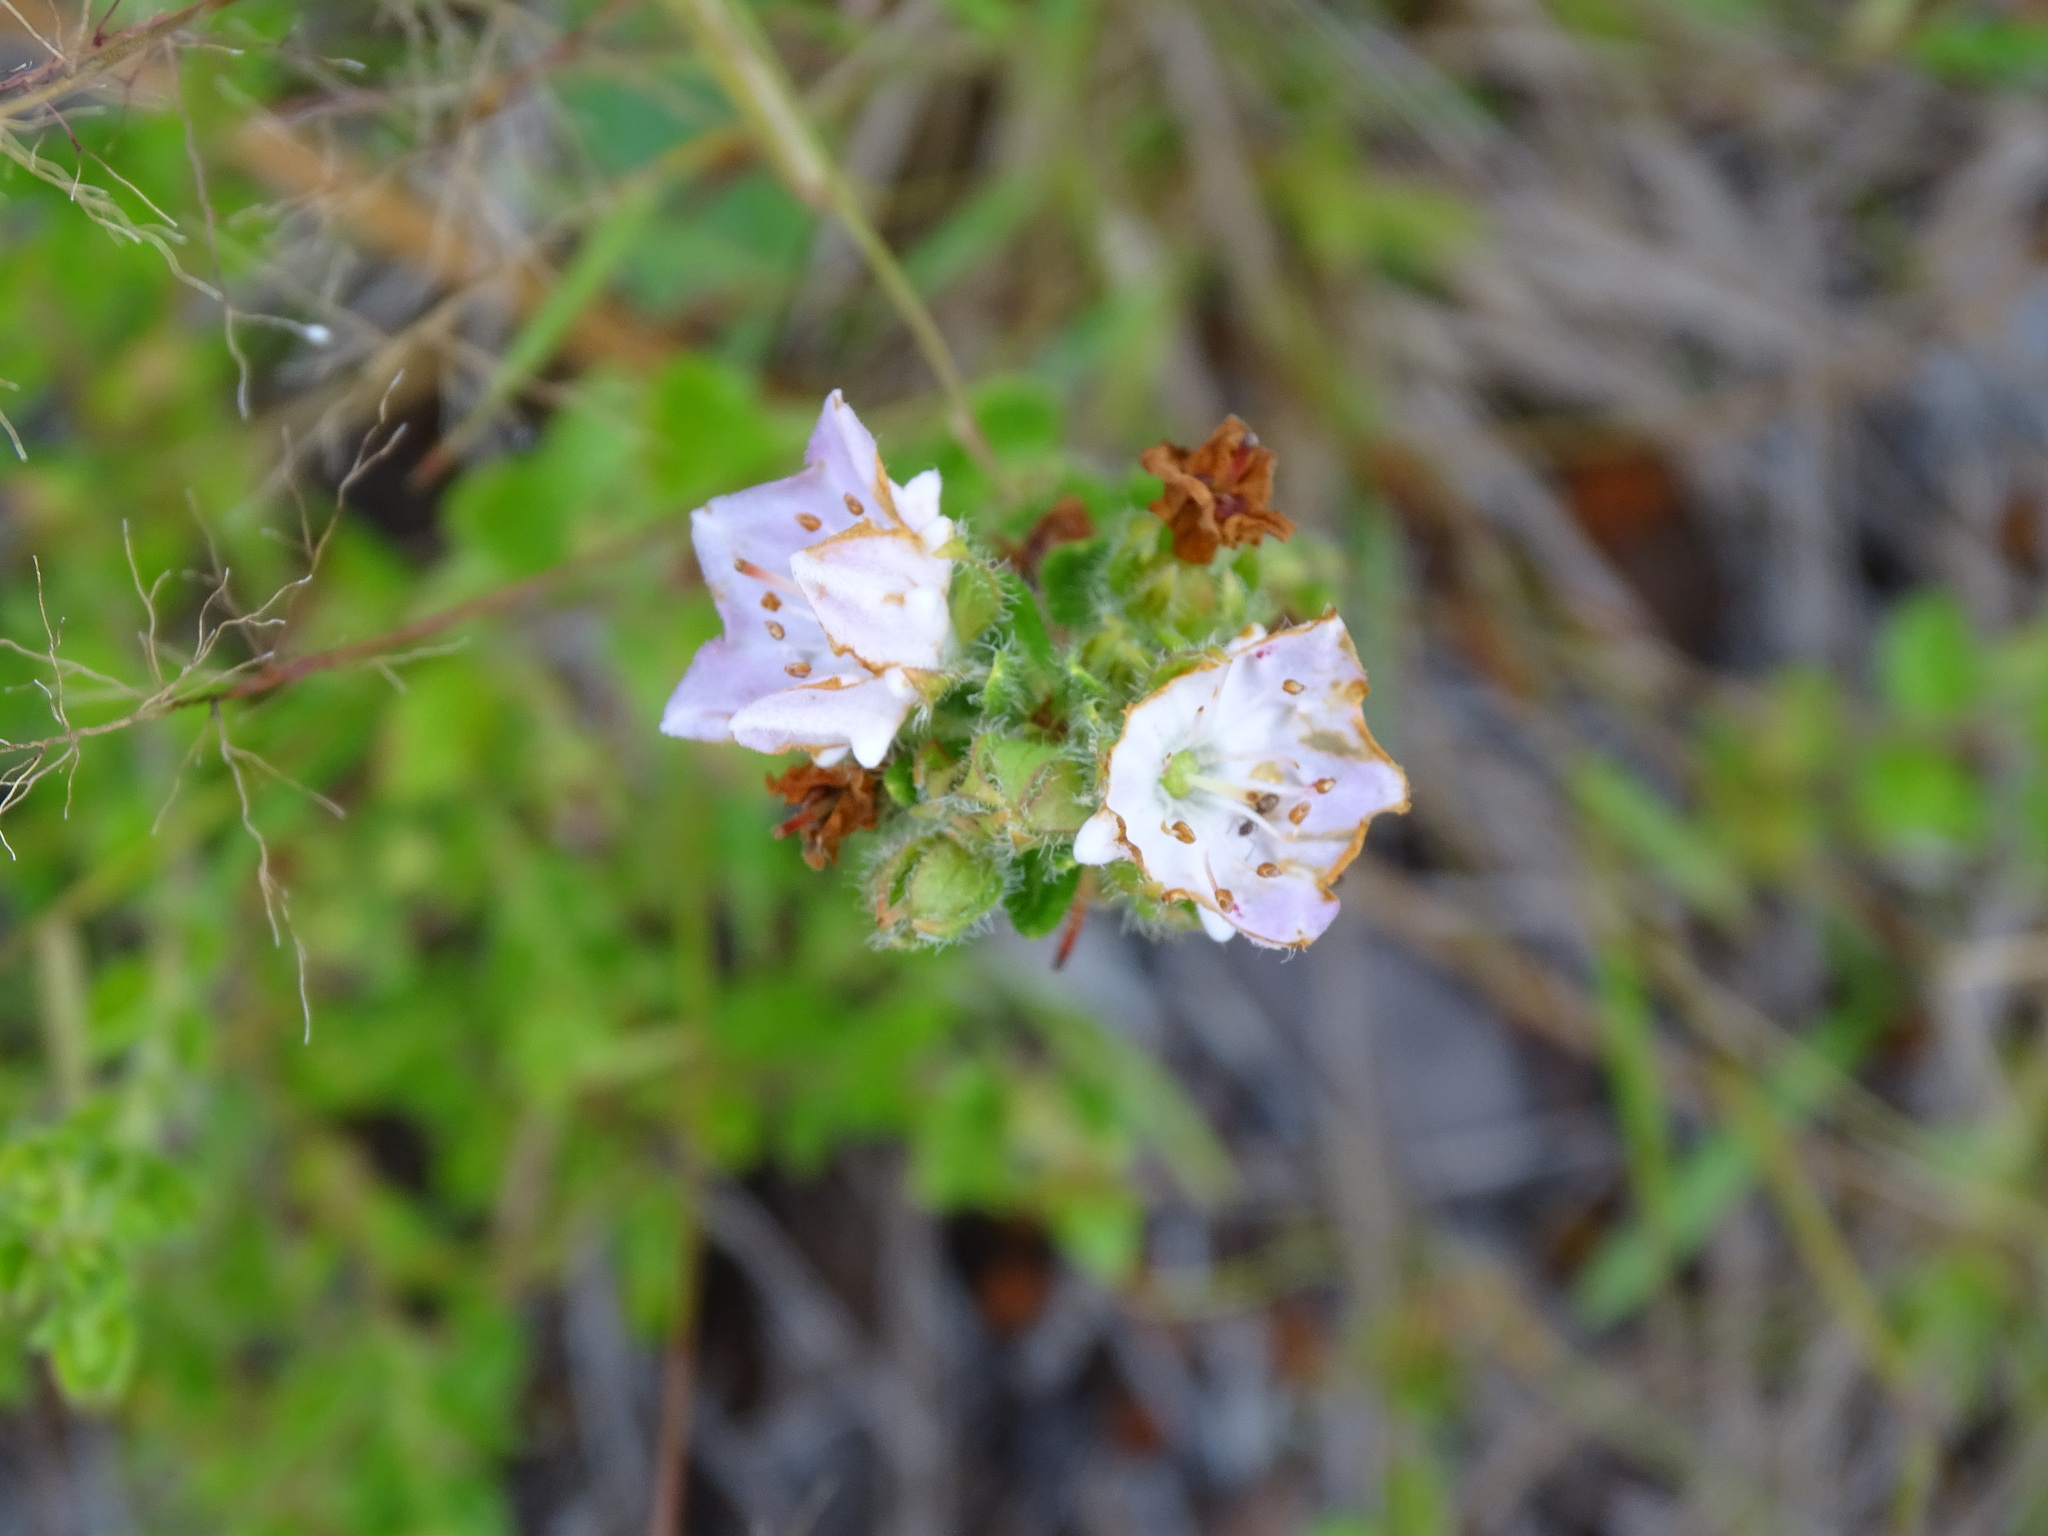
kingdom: Plantae
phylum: Tracheophyta
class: Magnoliopsida
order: Ericales
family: Ericaceae
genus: Kalmia
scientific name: Kalmia hirsuta
